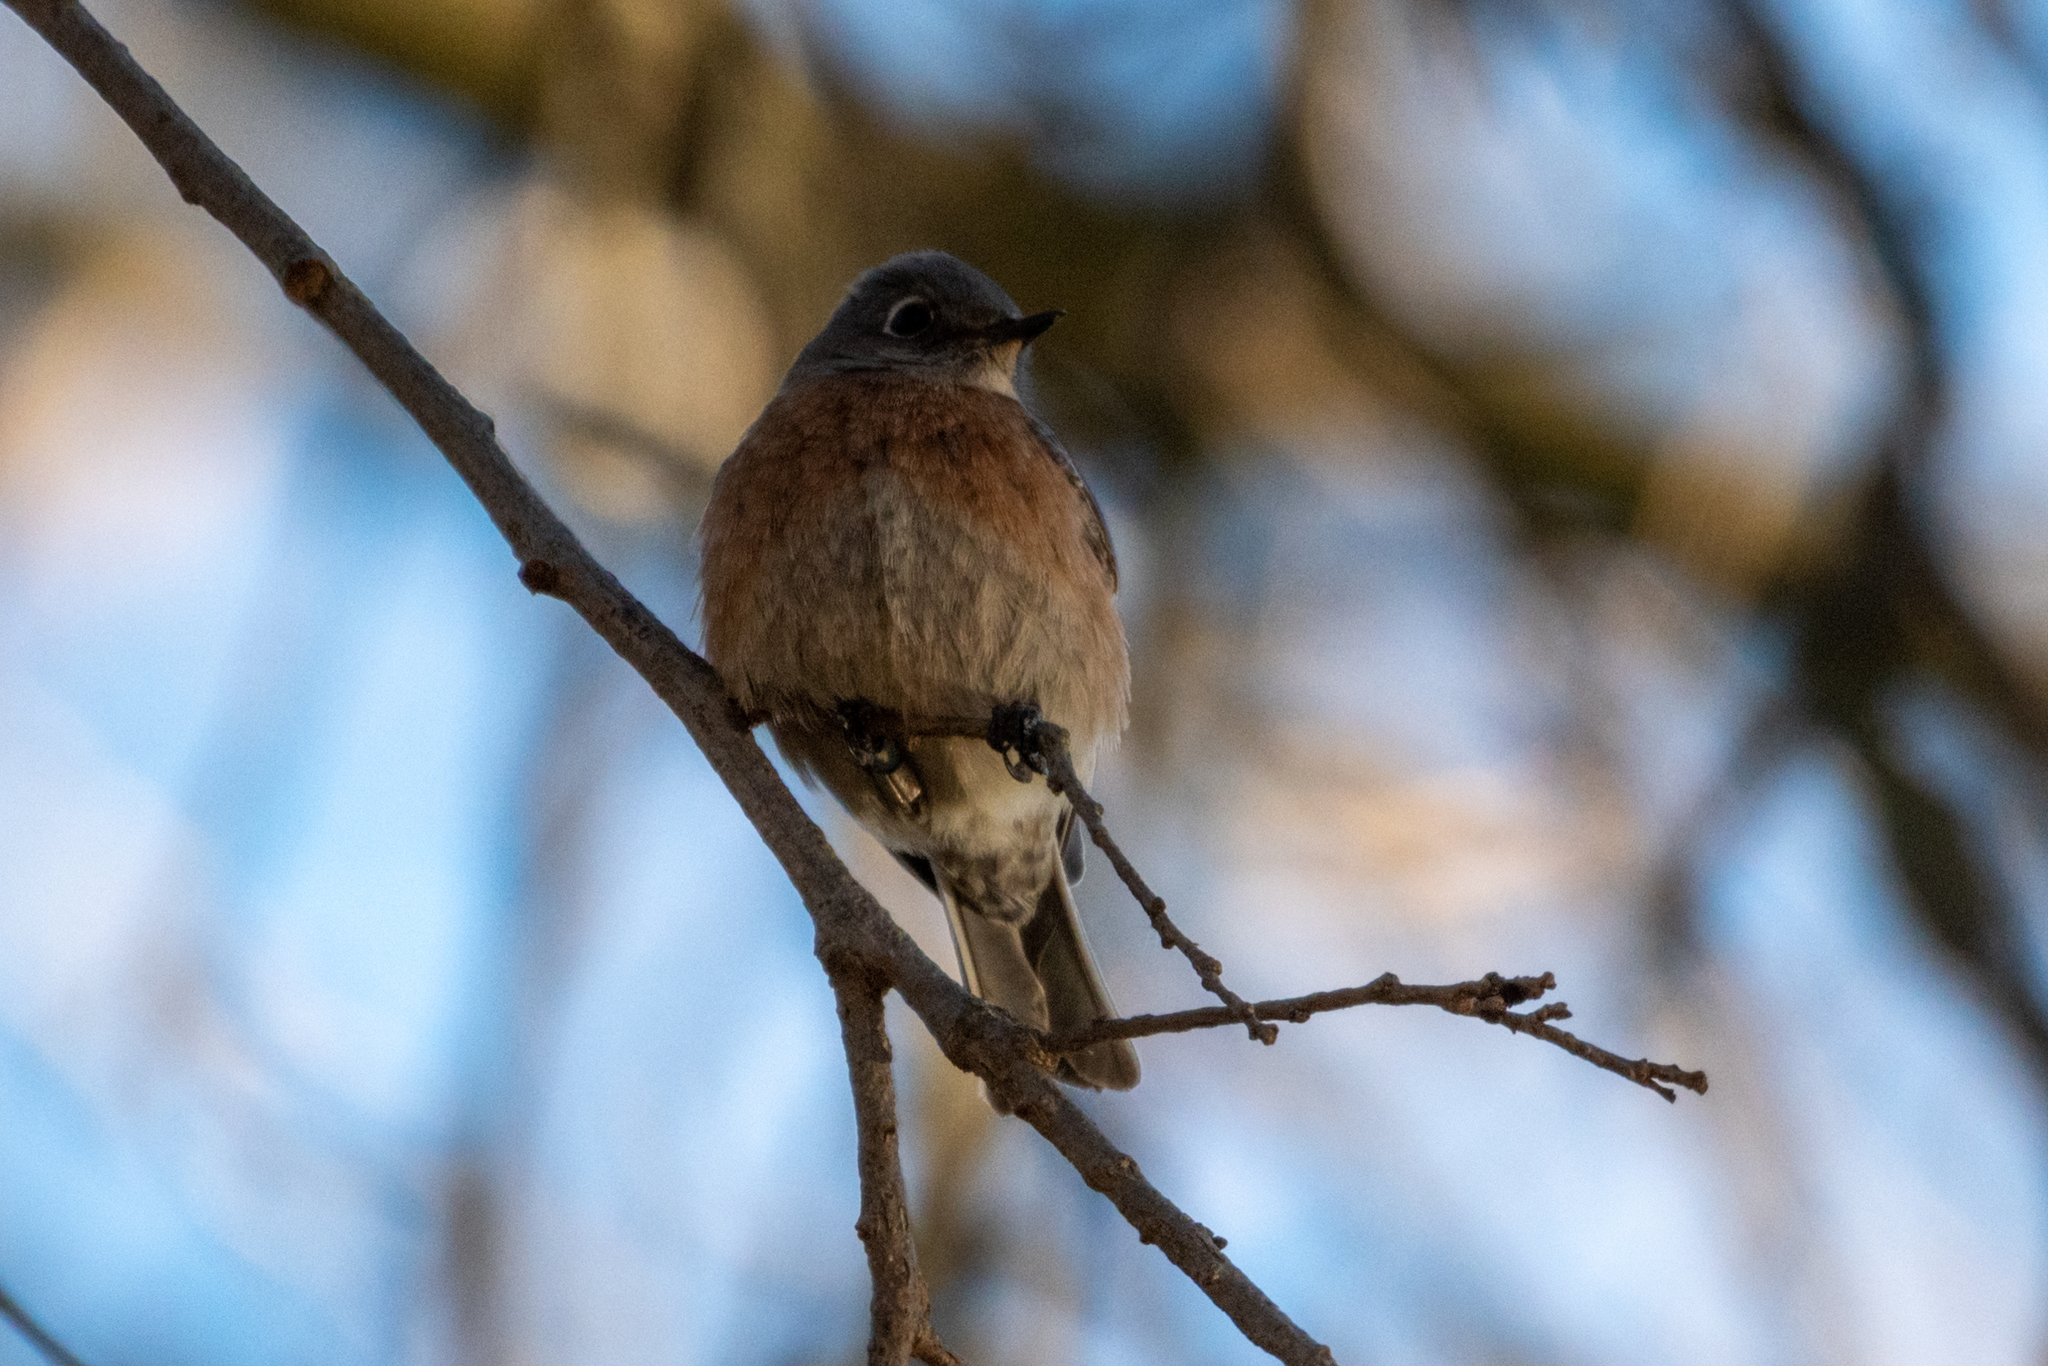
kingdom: Animalia
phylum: Chordata
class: Aves
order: Passeriformes
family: Turdidae
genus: Sialia
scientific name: Sialia mexicana
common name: Western bluebird
